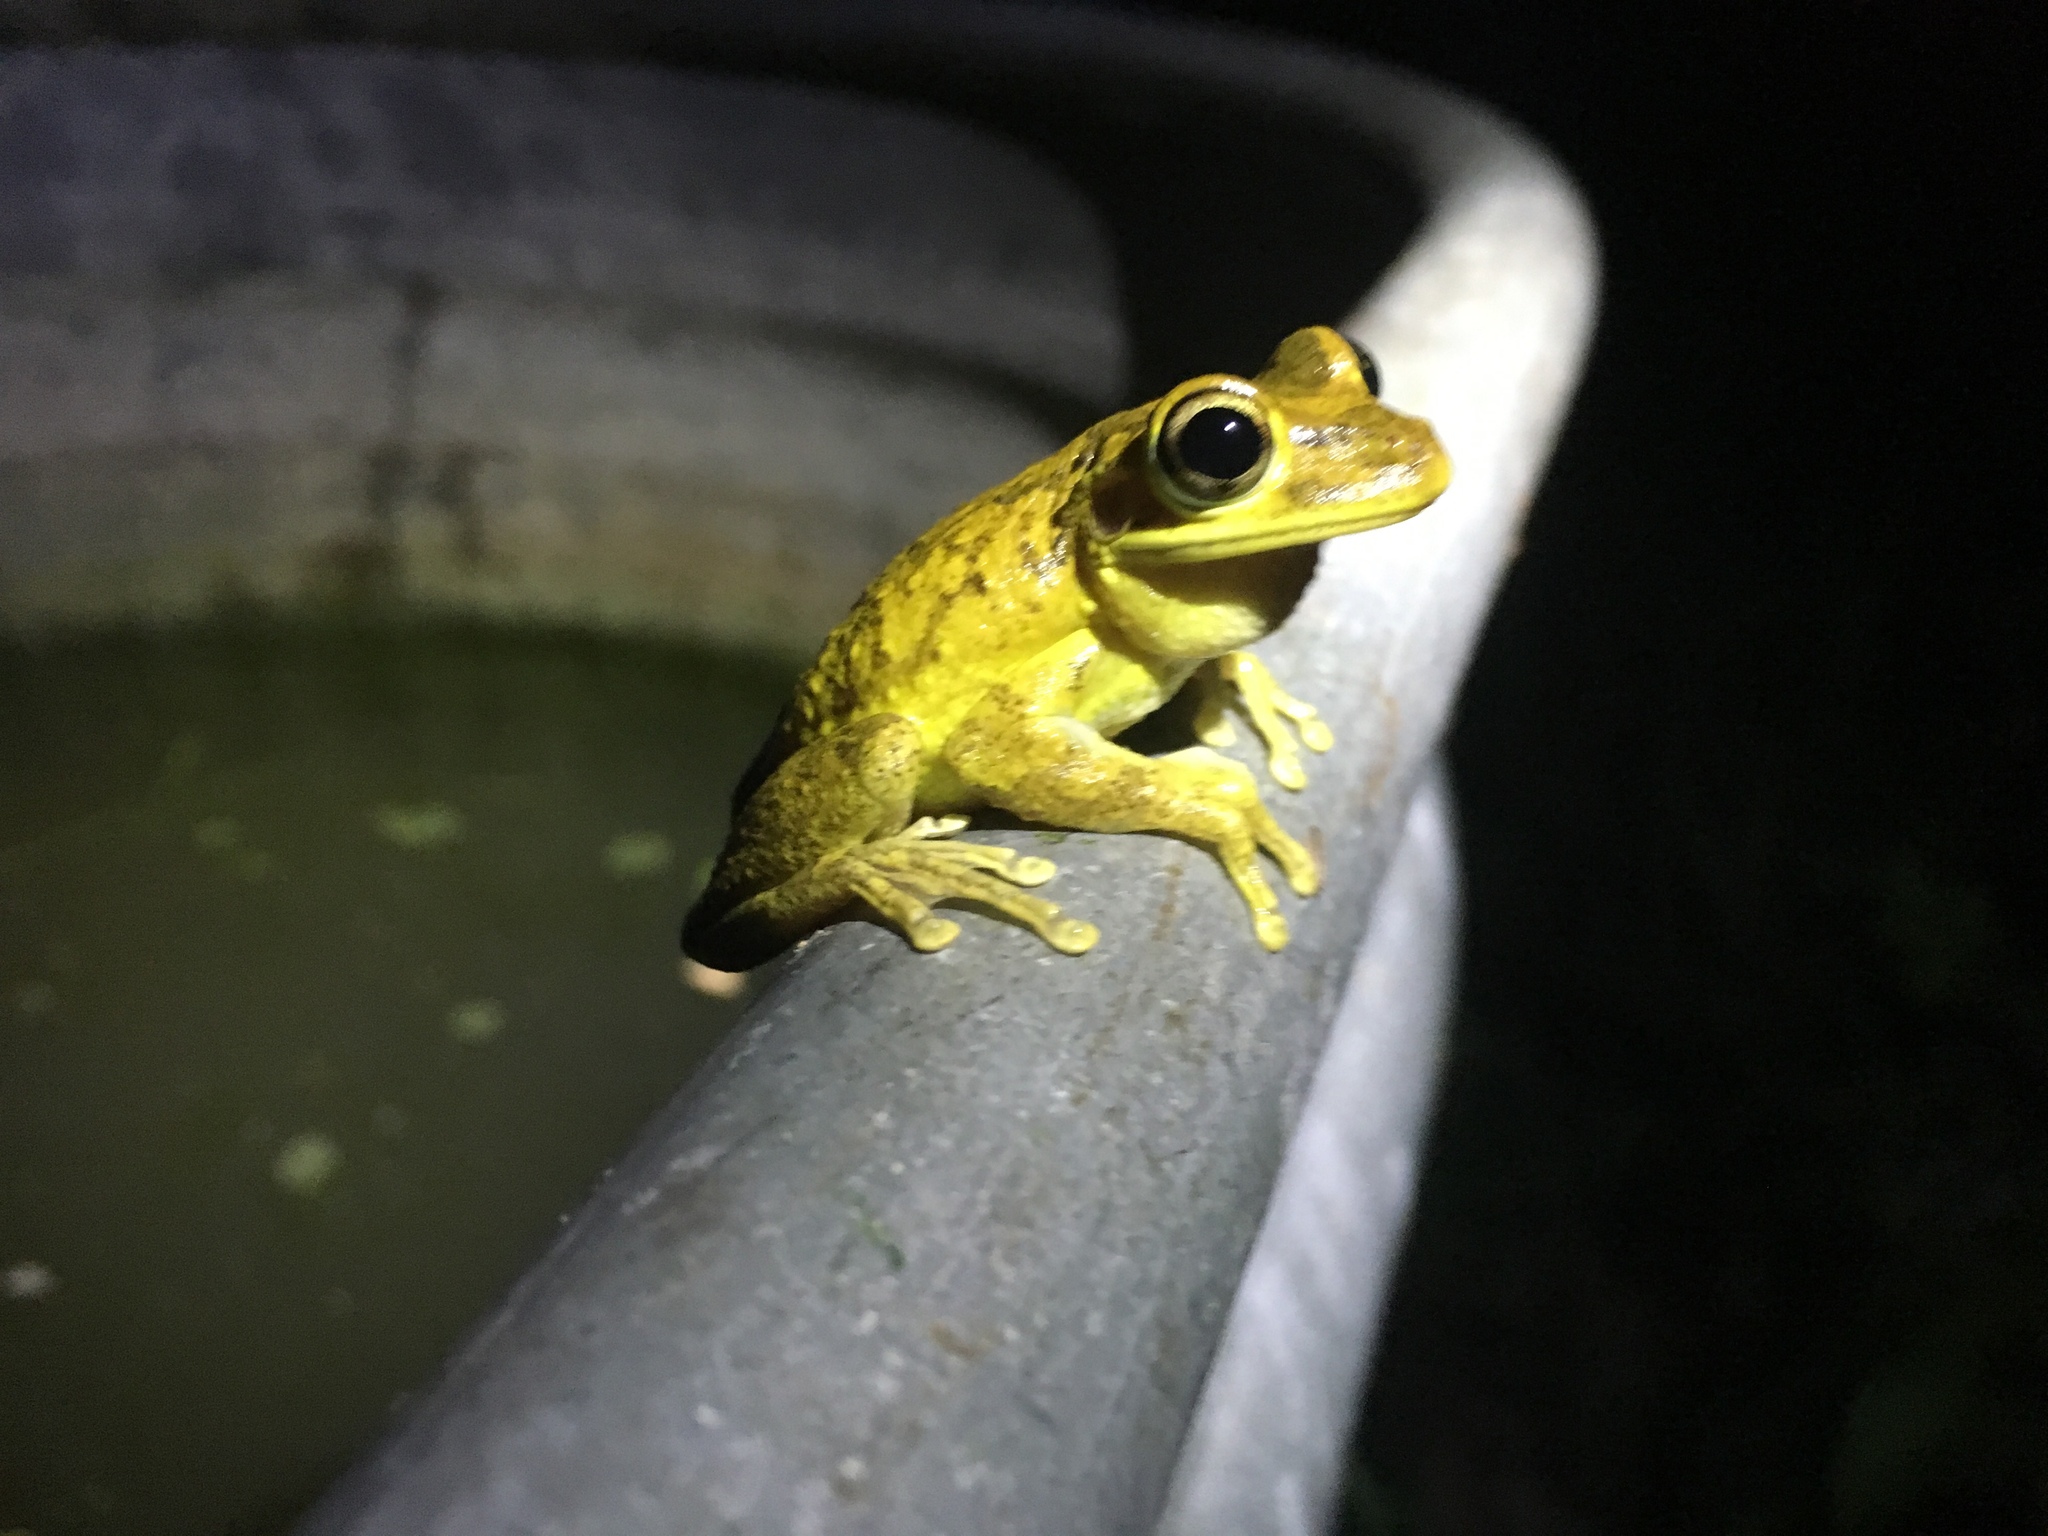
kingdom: Animalia
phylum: Chordata
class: Amphibia
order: Anura
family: Hylidae
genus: Osteopilus
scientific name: Osteopilus septentrionalis
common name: Cuban treefrog
